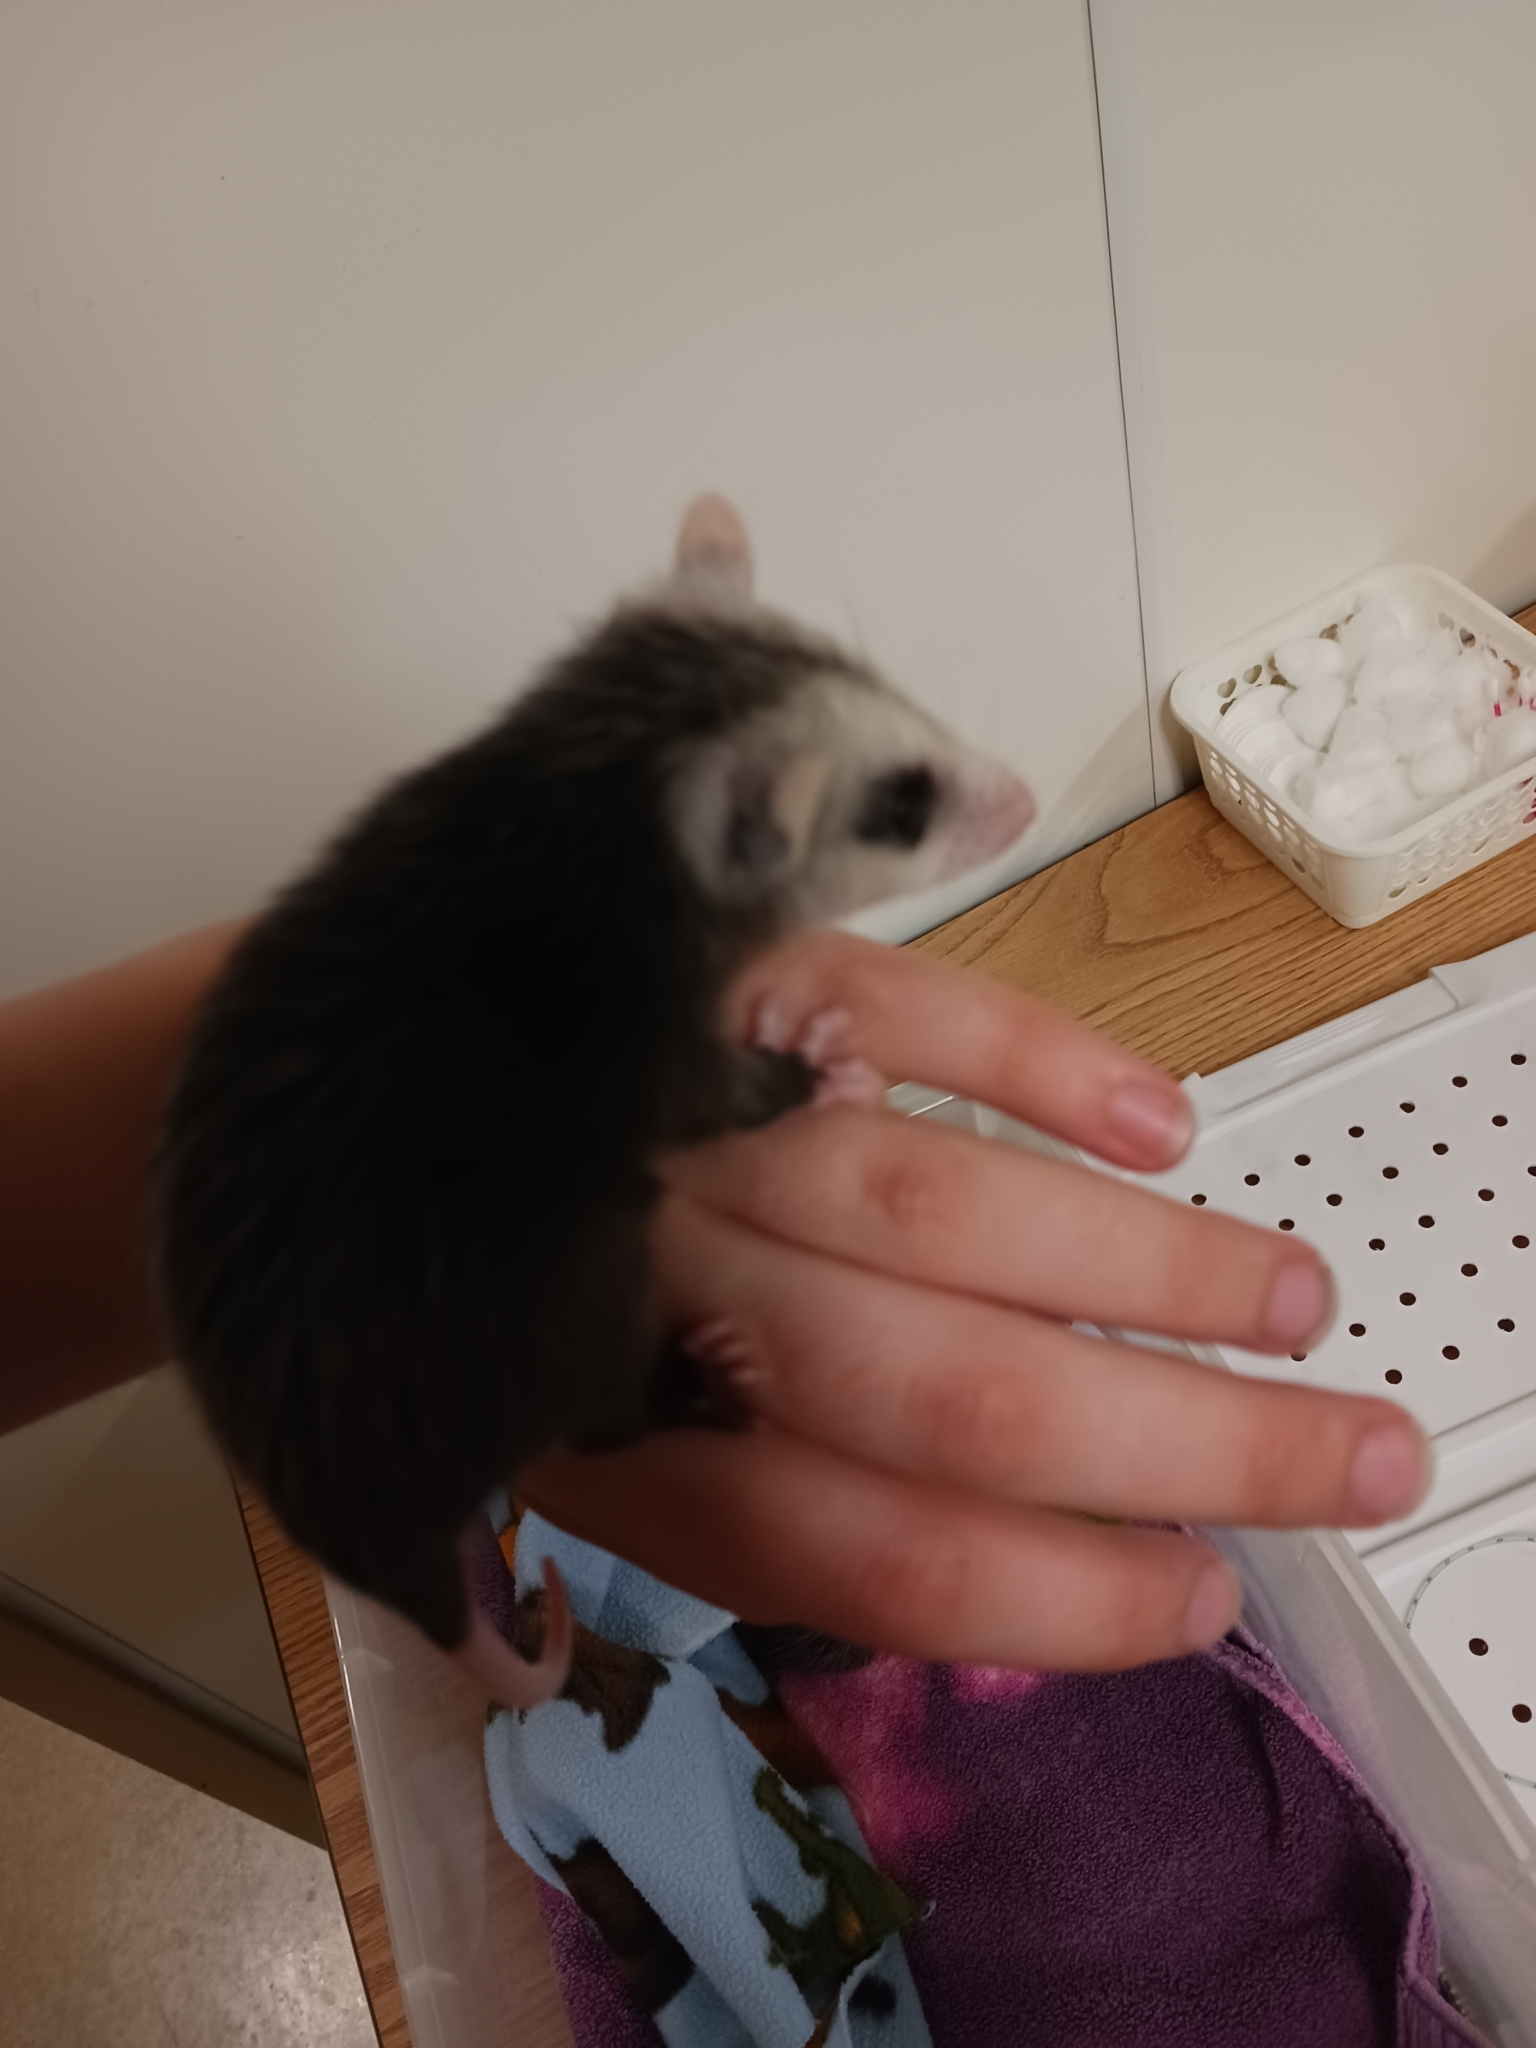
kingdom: Animalia
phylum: Chordata
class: Mammalia
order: Didelphimorphia
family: Didelphidae
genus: Didelphis
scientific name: Didelphis virginiana
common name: Virginia opossum
